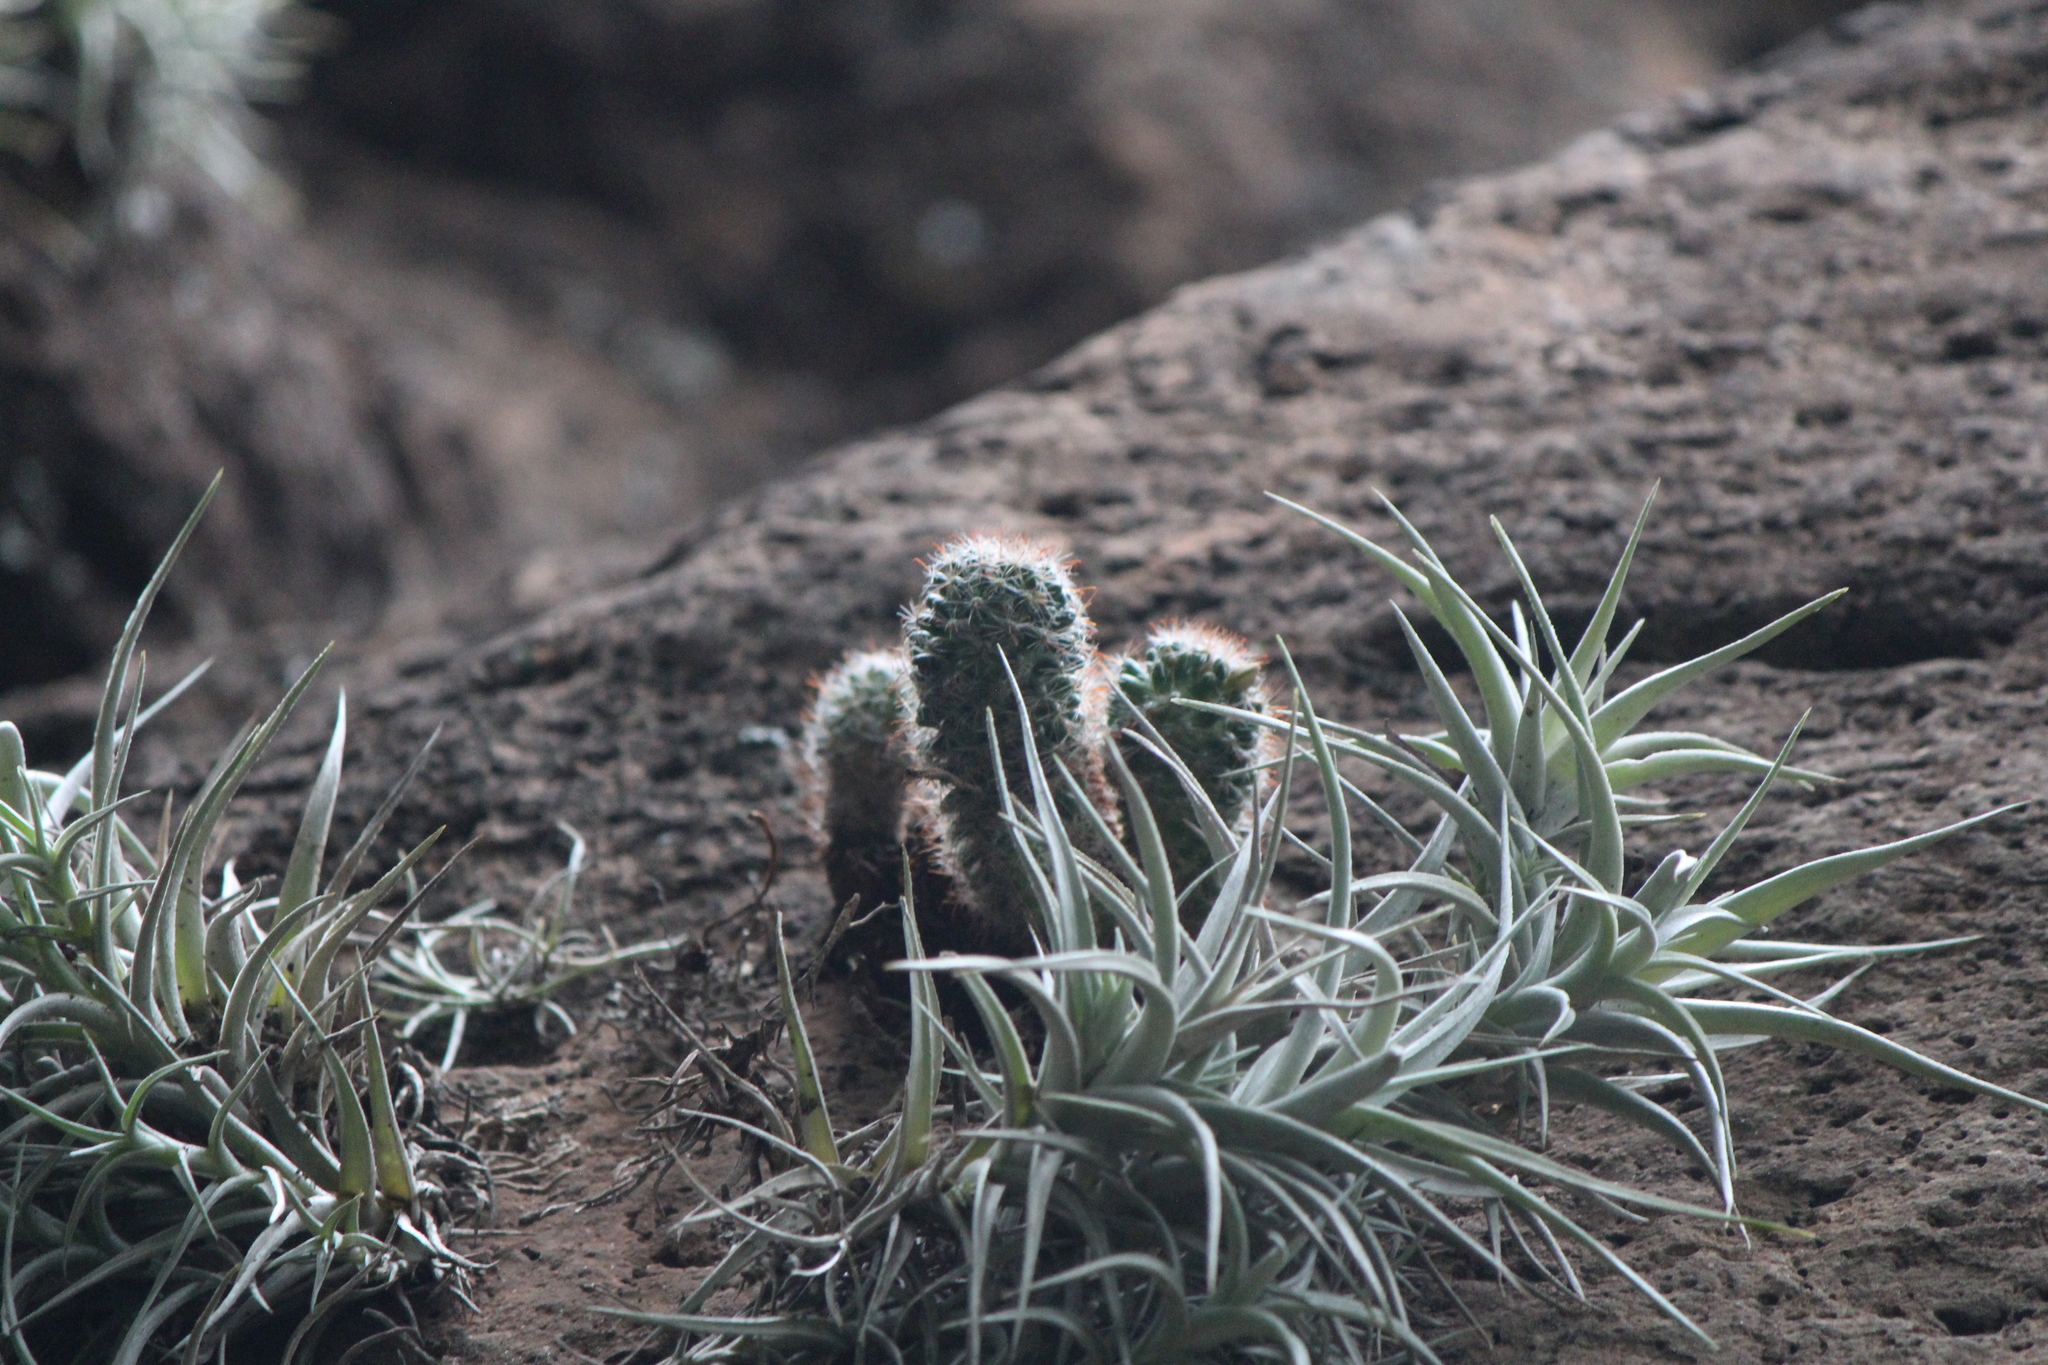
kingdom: Plantae
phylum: Tracheophyta
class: Magnoliopsida
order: Caryophyllales
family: Cactaceae
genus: Mammillaria
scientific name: Mammillaria crinita
